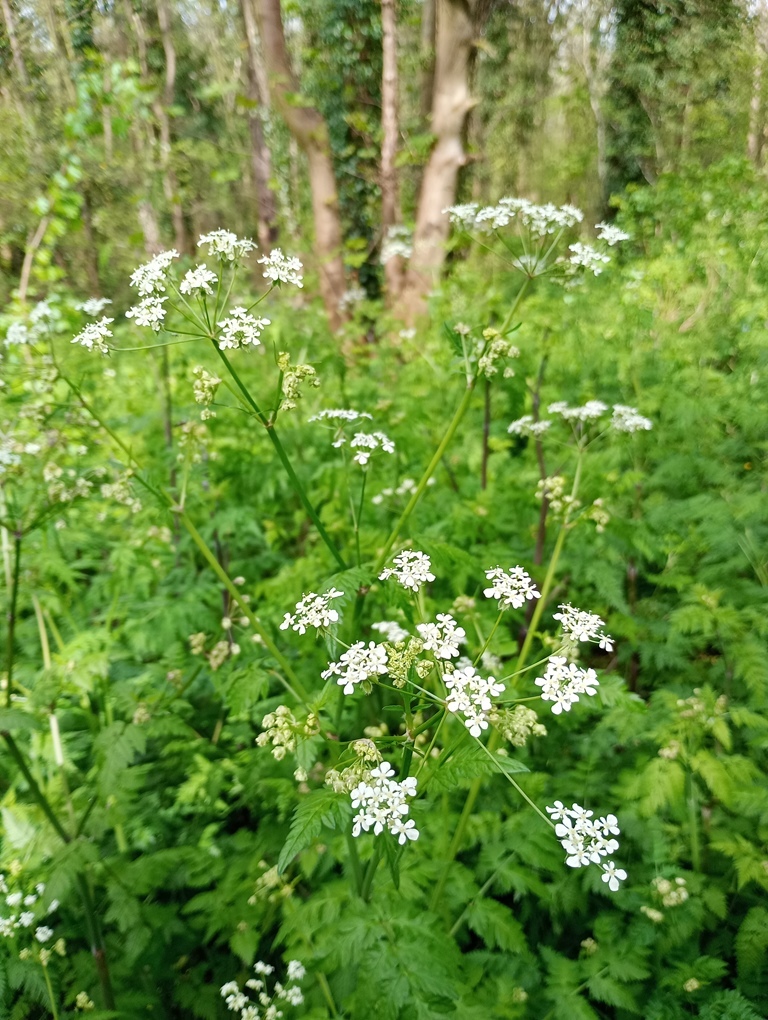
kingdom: Plantae
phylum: Tracheophyta
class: Magnoliopsida
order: Apiales
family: Apiaceae
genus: Anthriscus
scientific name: Anthriscus sylvestris
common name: Cow parsley
